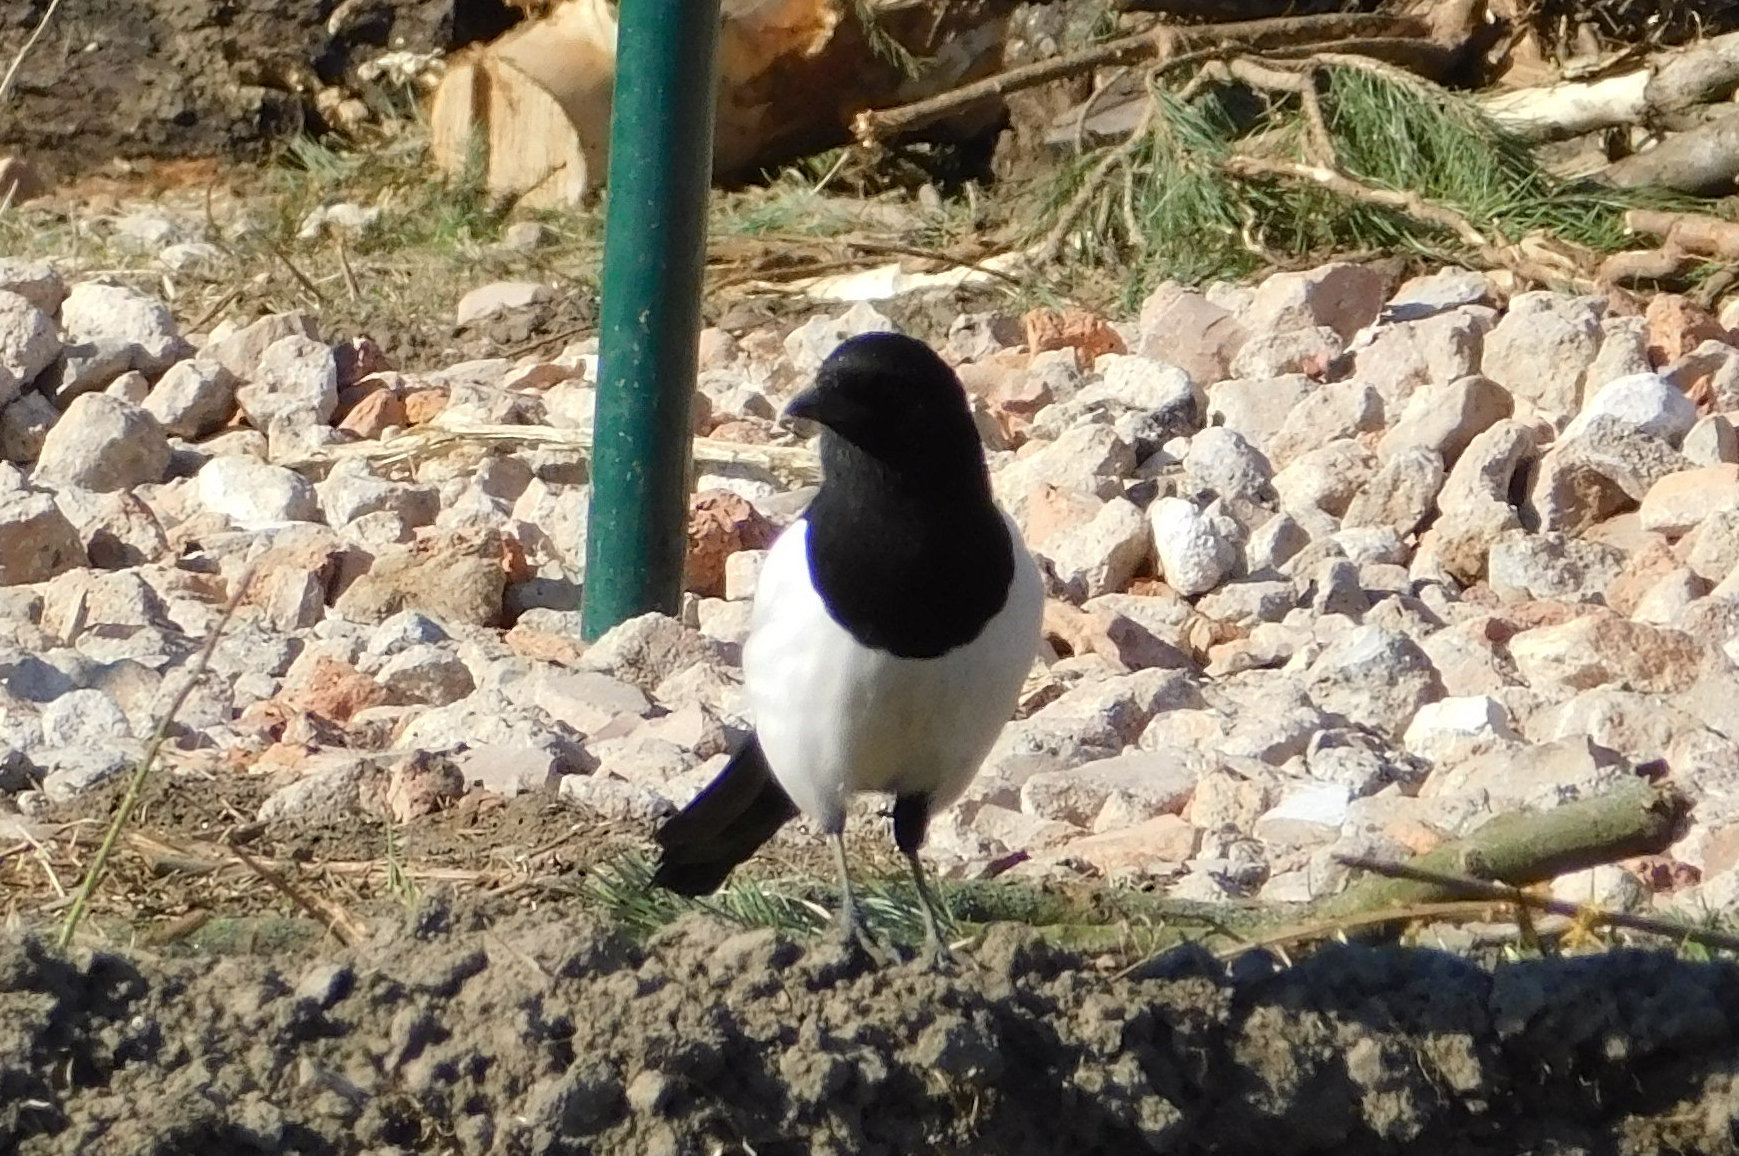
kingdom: Animalia
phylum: Chordata
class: Aves
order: Passeriformes
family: Corvidae
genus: Pica
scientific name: Pica pica
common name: Eurasian magpie
